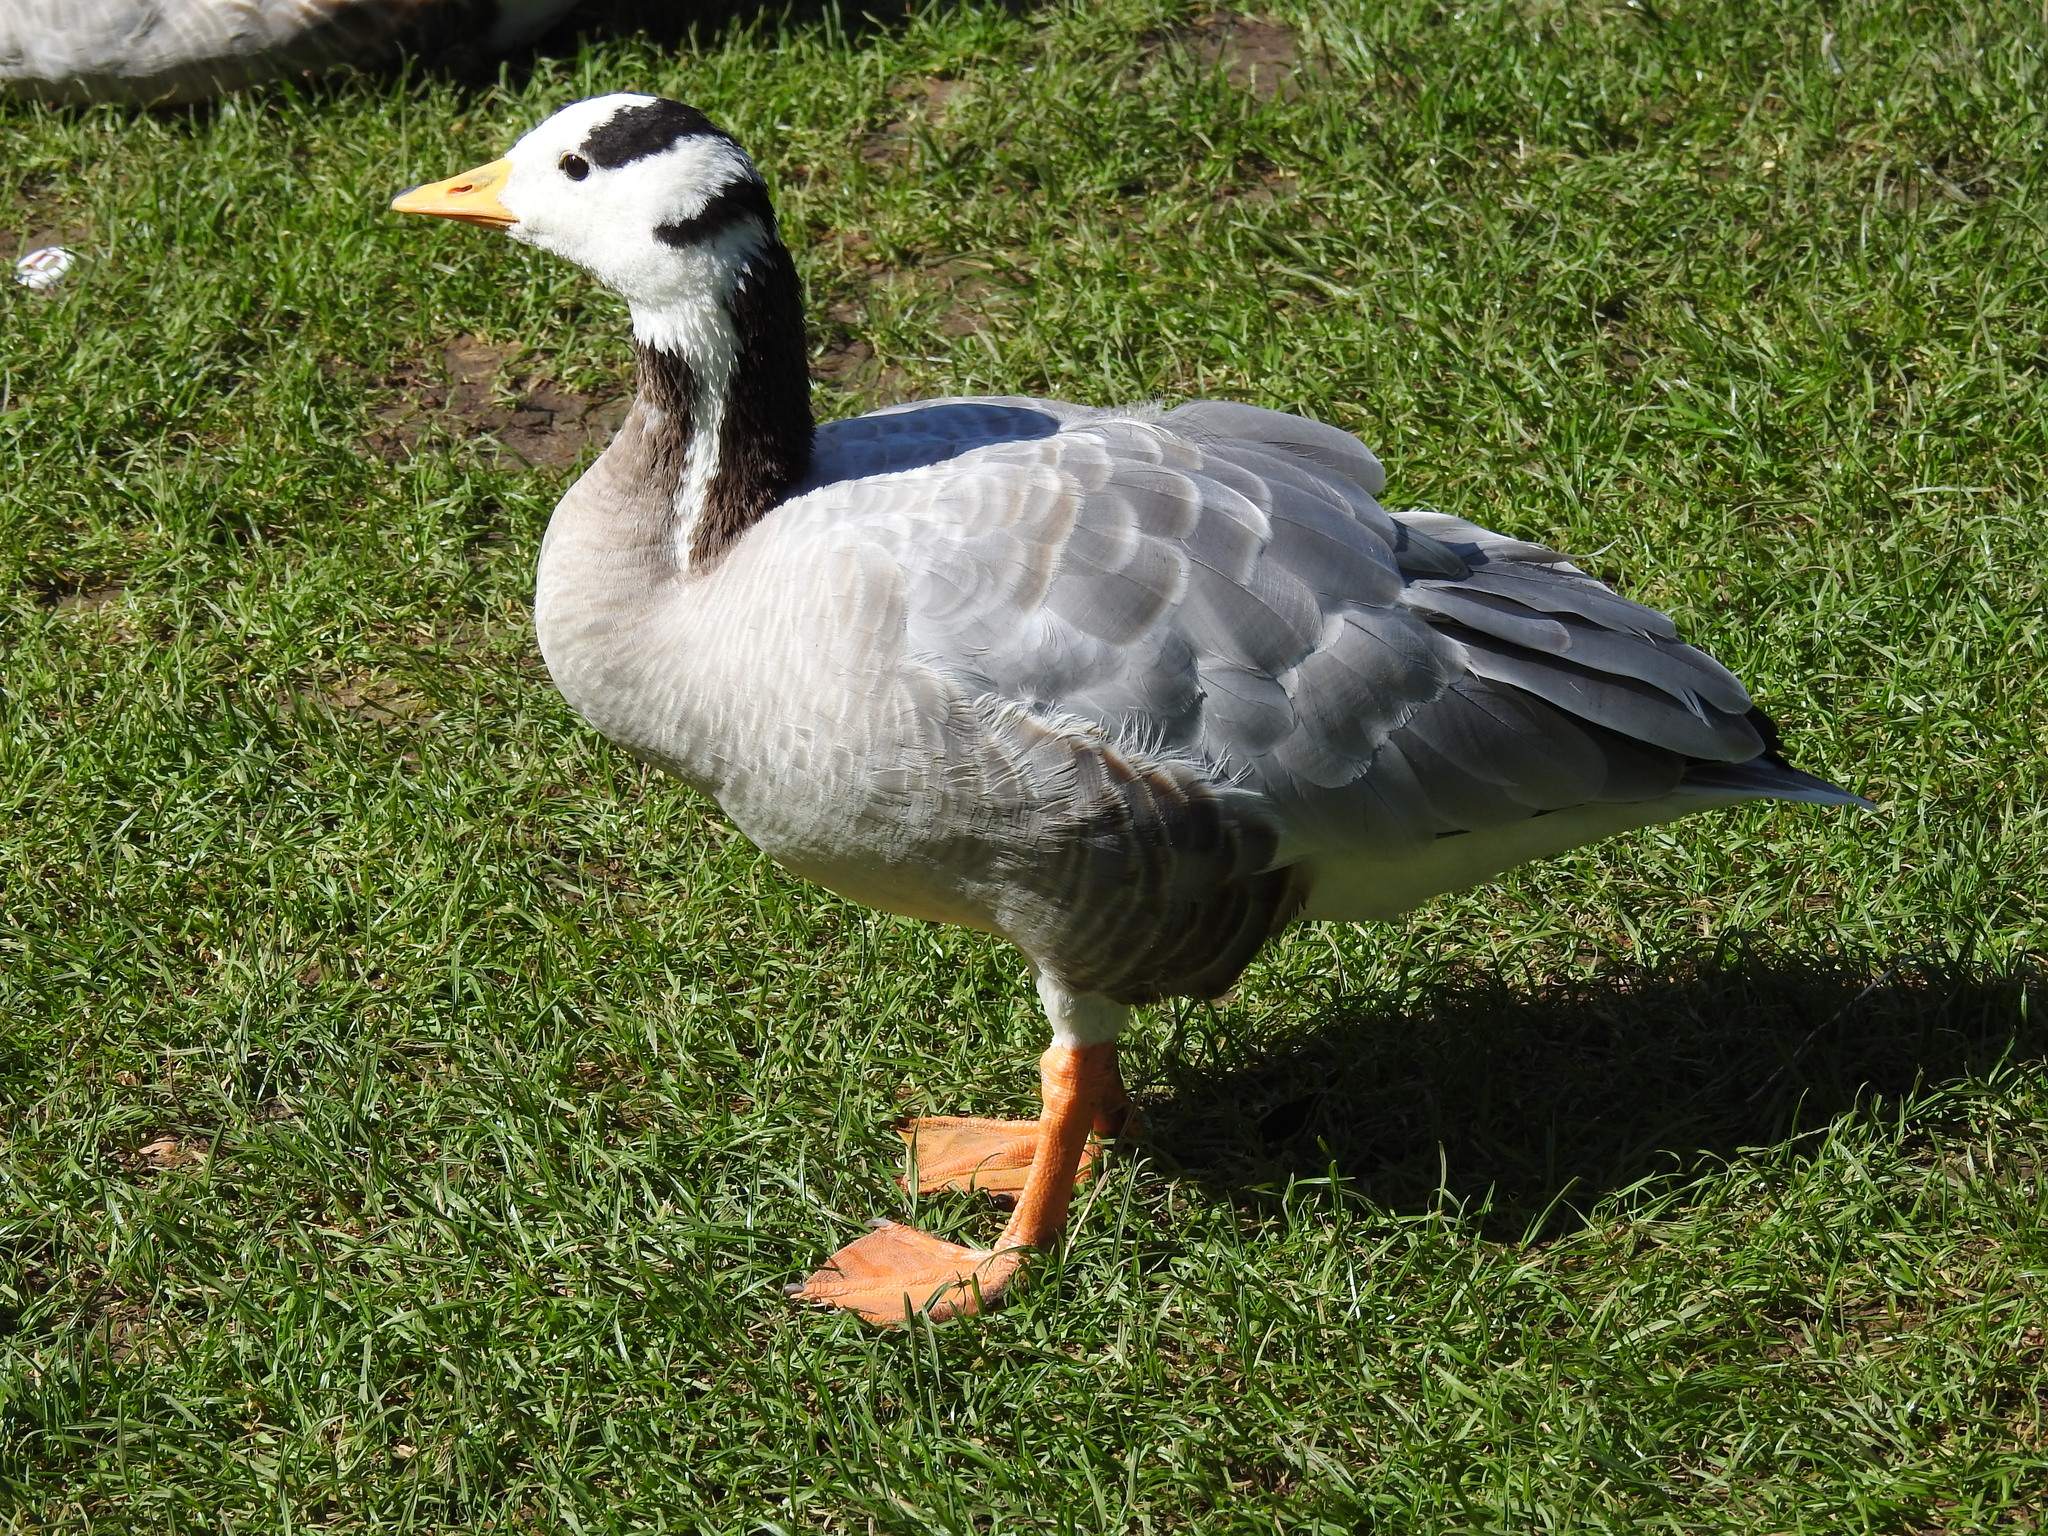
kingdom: Animalia
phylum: Chordata
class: Aves
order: Anseriformes
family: Anatidae
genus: Anser
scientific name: Anser indicus
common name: Bar-headed goose
